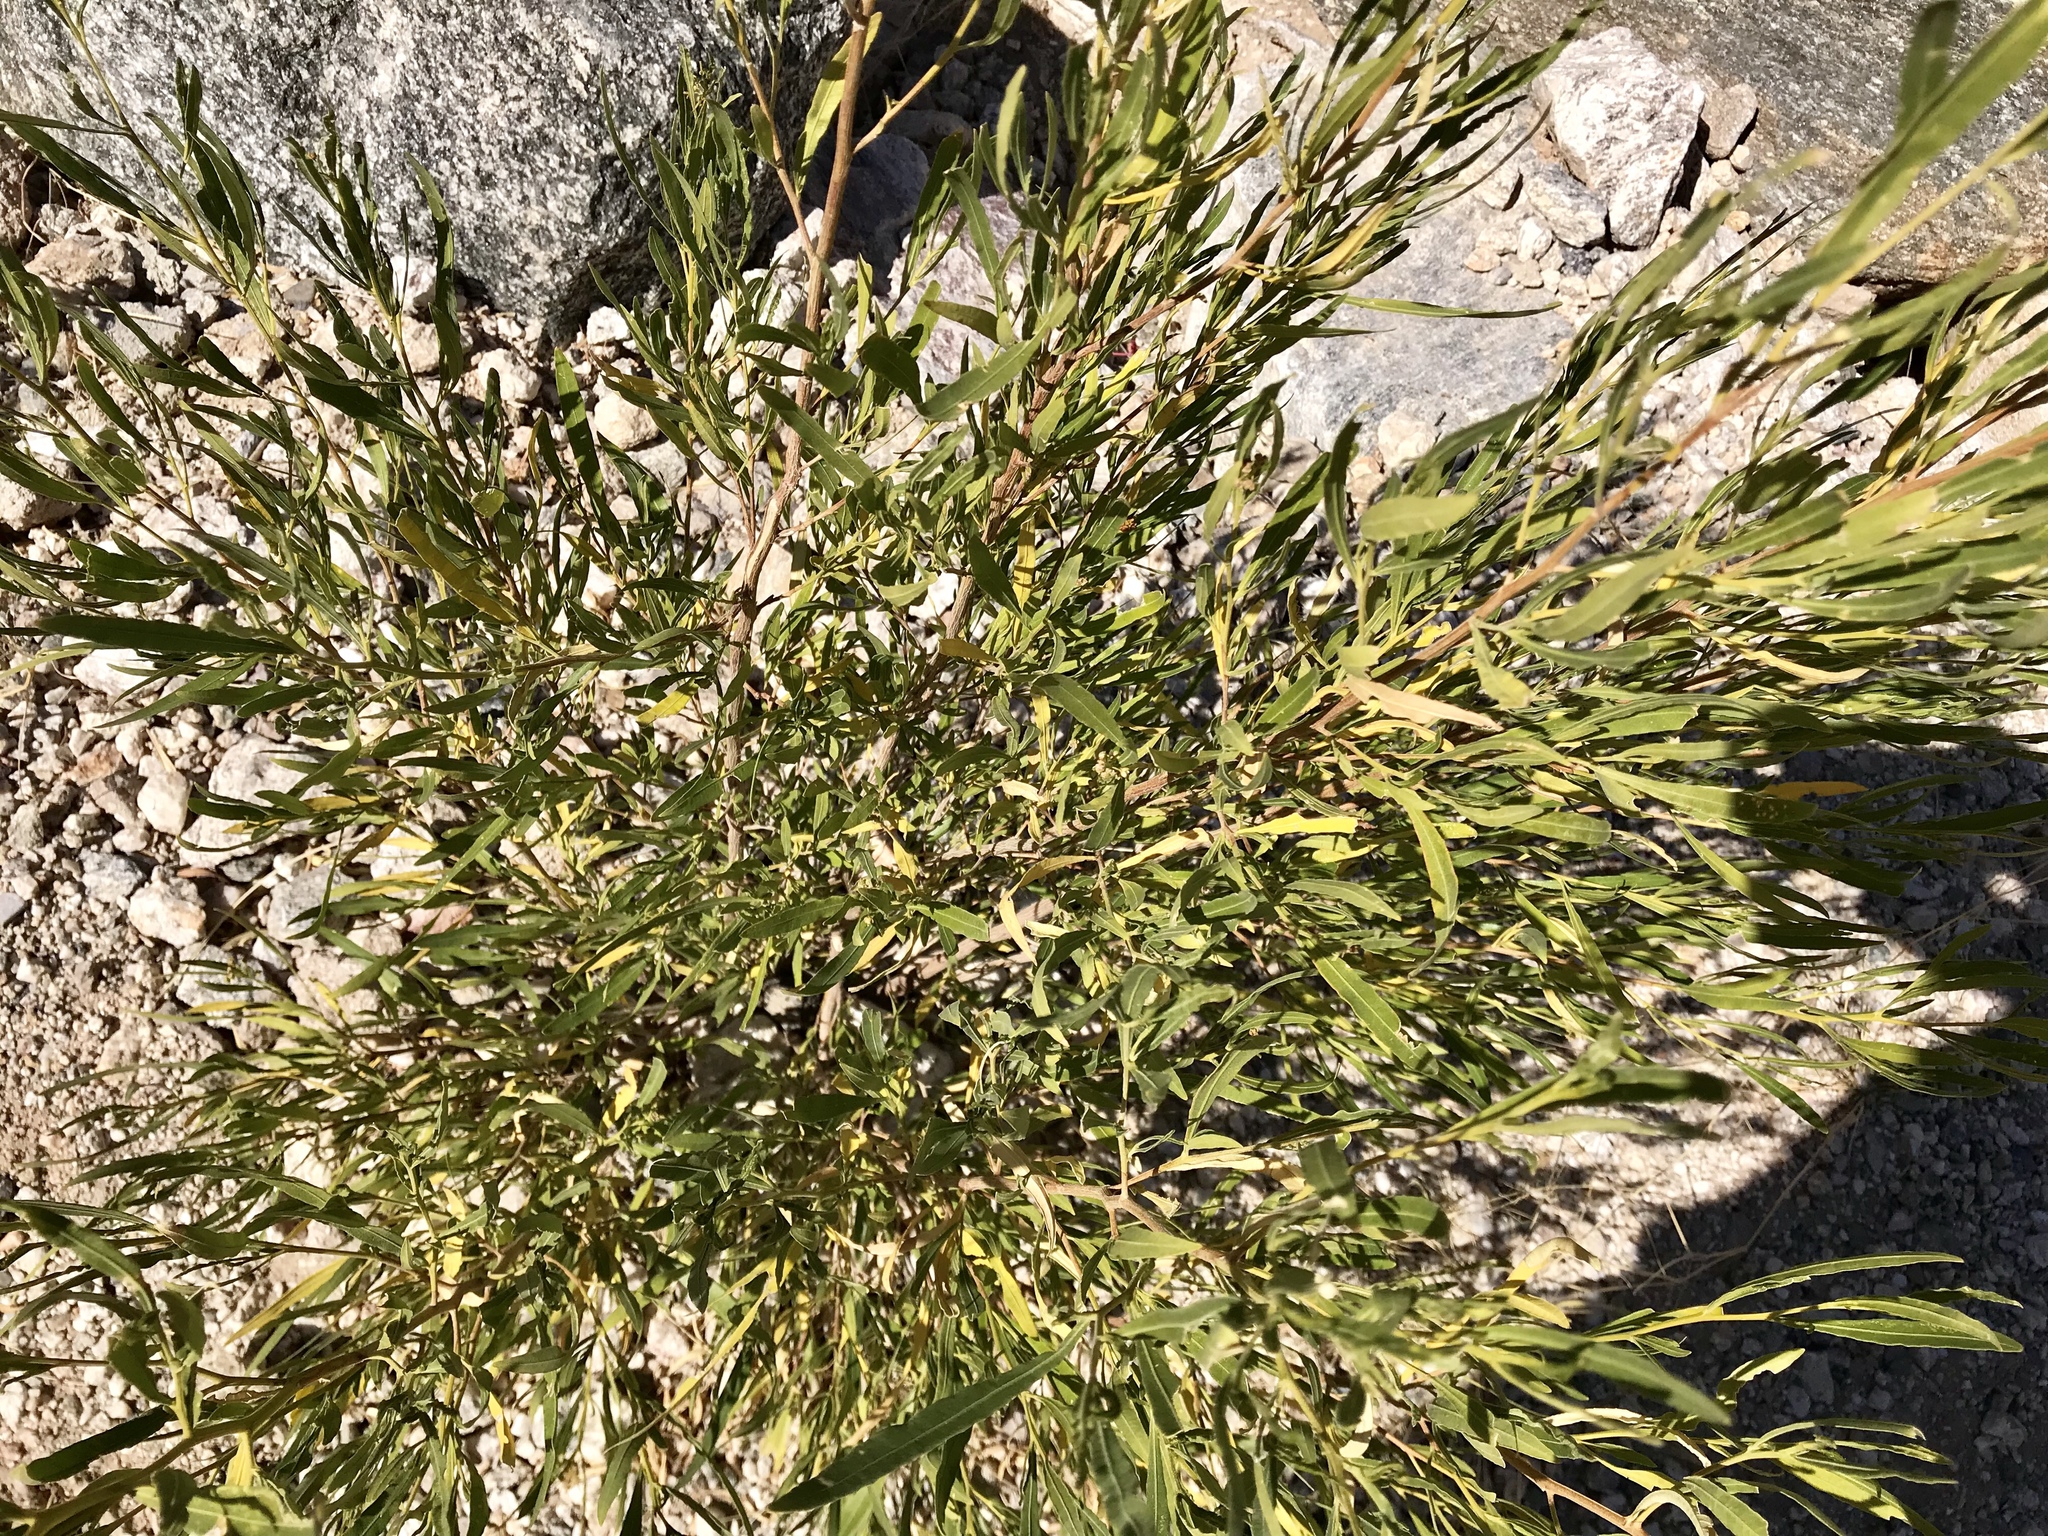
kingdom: Plantae
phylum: Tracheophyta
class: Magnoliopsida
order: Sapindales
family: Sapindaceae
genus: Dodonaea
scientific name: Dodonaea viscosa
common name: Hopbush
